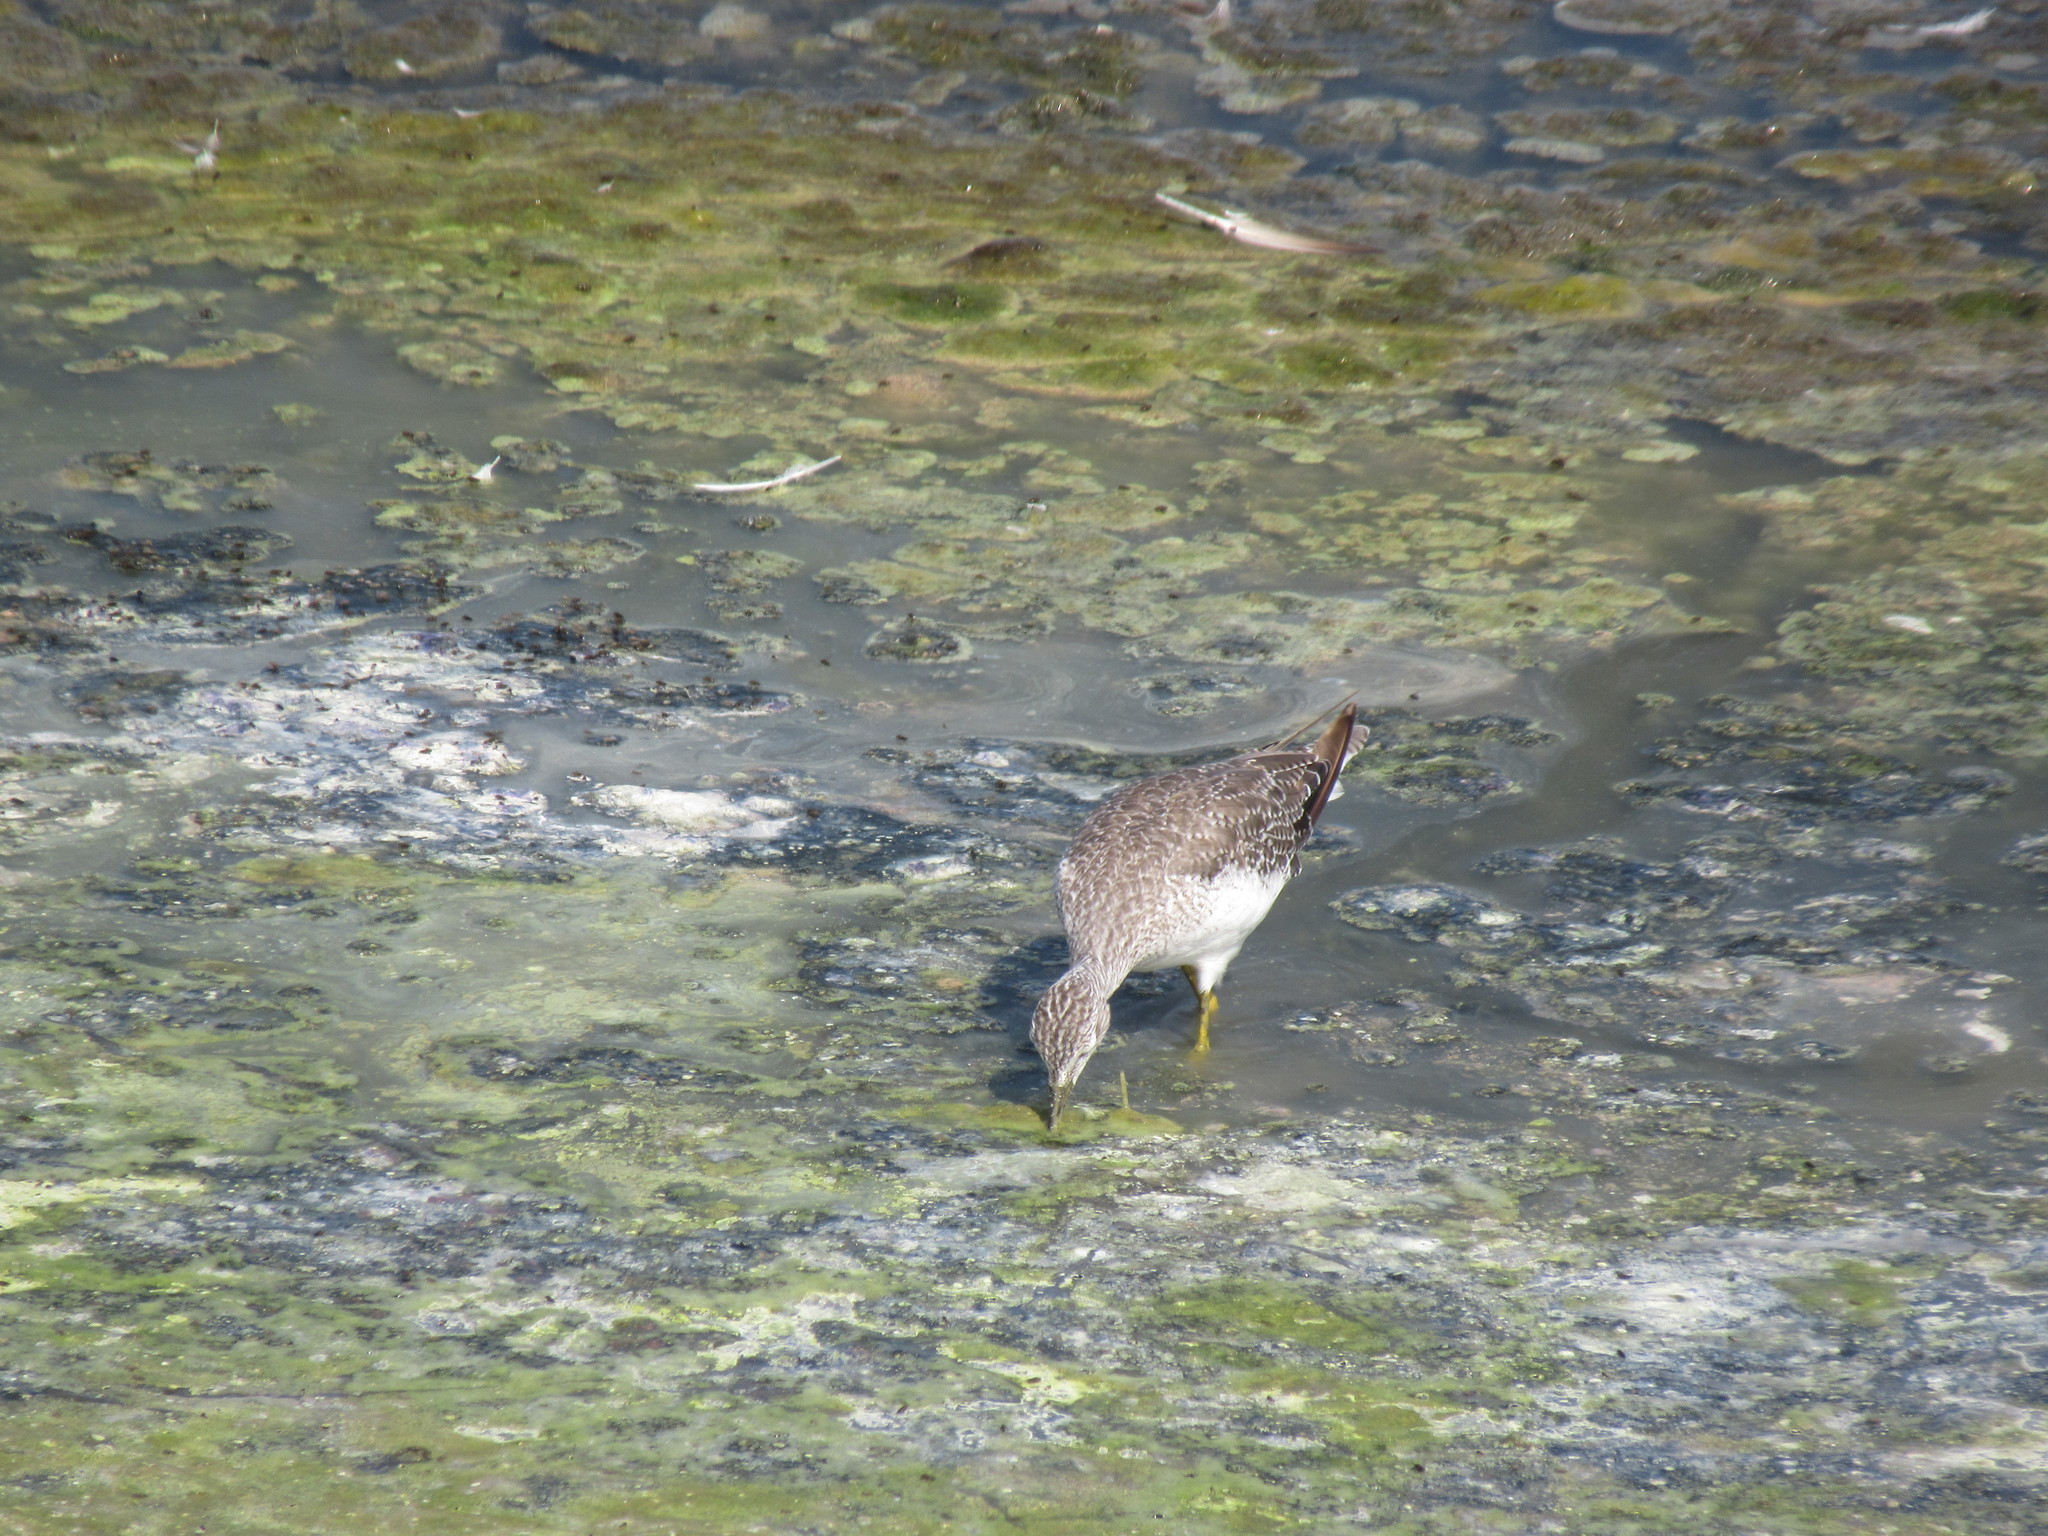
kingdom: Animalia
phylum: Chordata
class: Aves
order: Charadriiformes
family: Scolopacidae
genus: Tringa
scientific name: Tringa melanoleuca
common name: Greater yellowlegs
